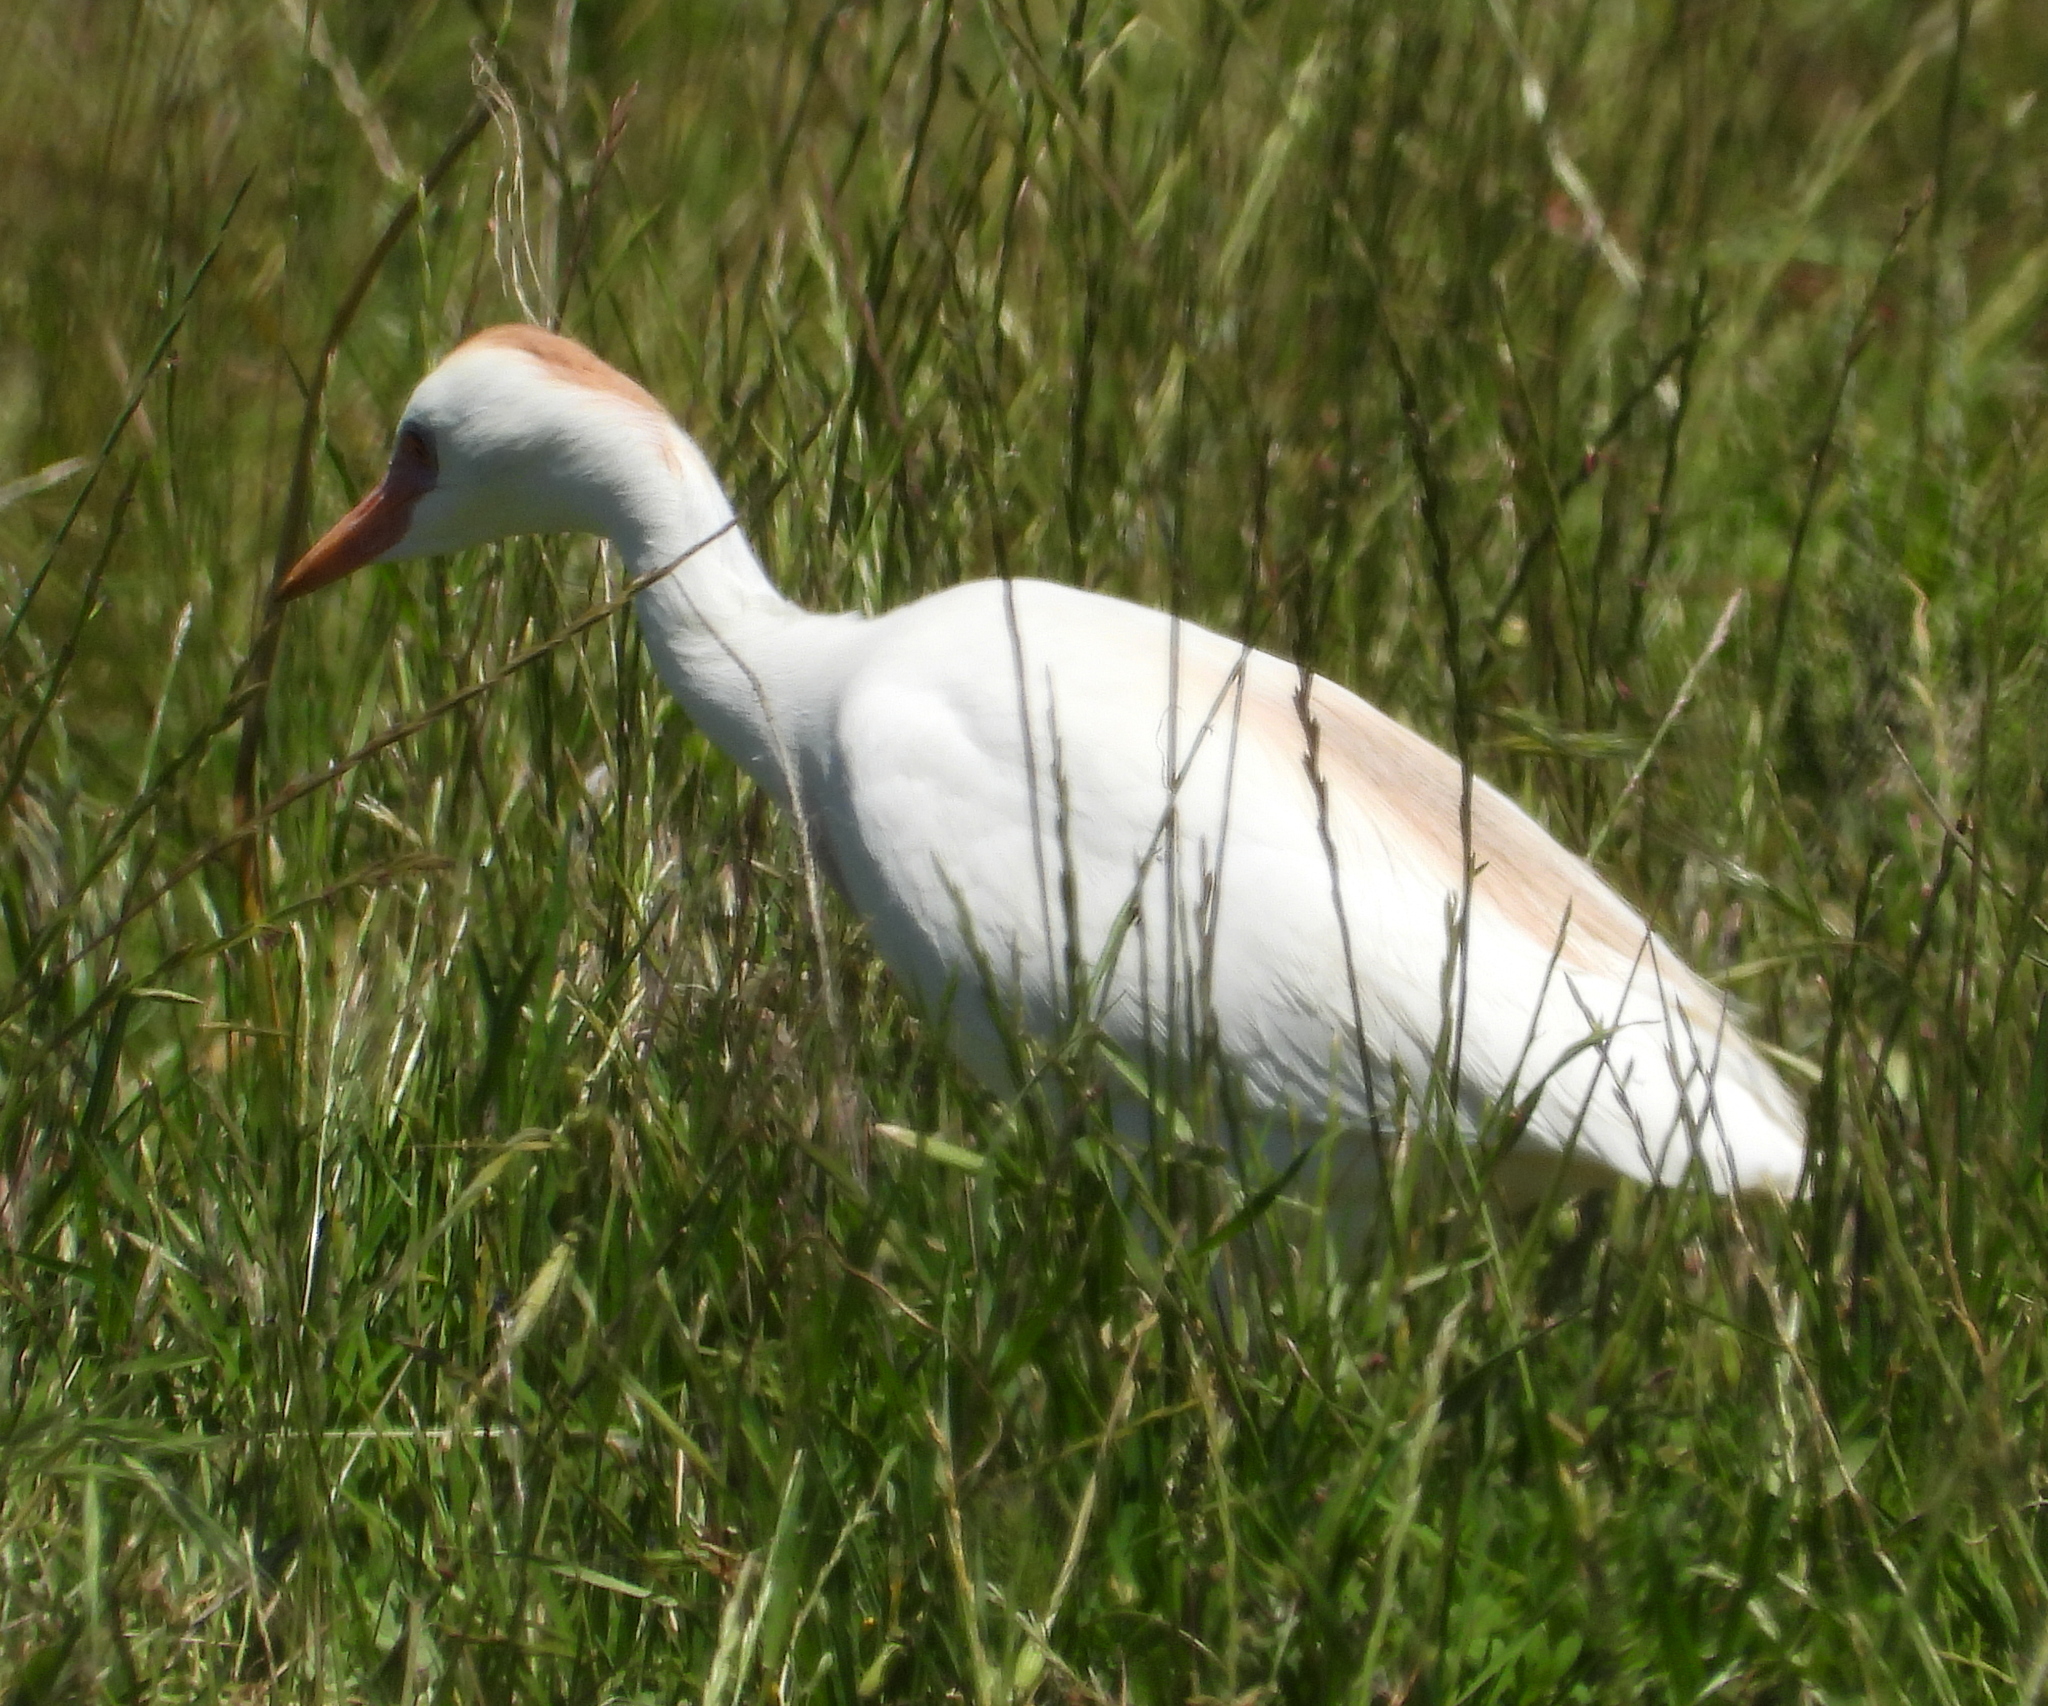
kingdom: Animalia
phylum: Chordata
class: Aves
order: Pelecaniformes
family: Ardeidae
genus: Bubulcus
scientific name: Bubulcus ibis
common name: Cattle egret
